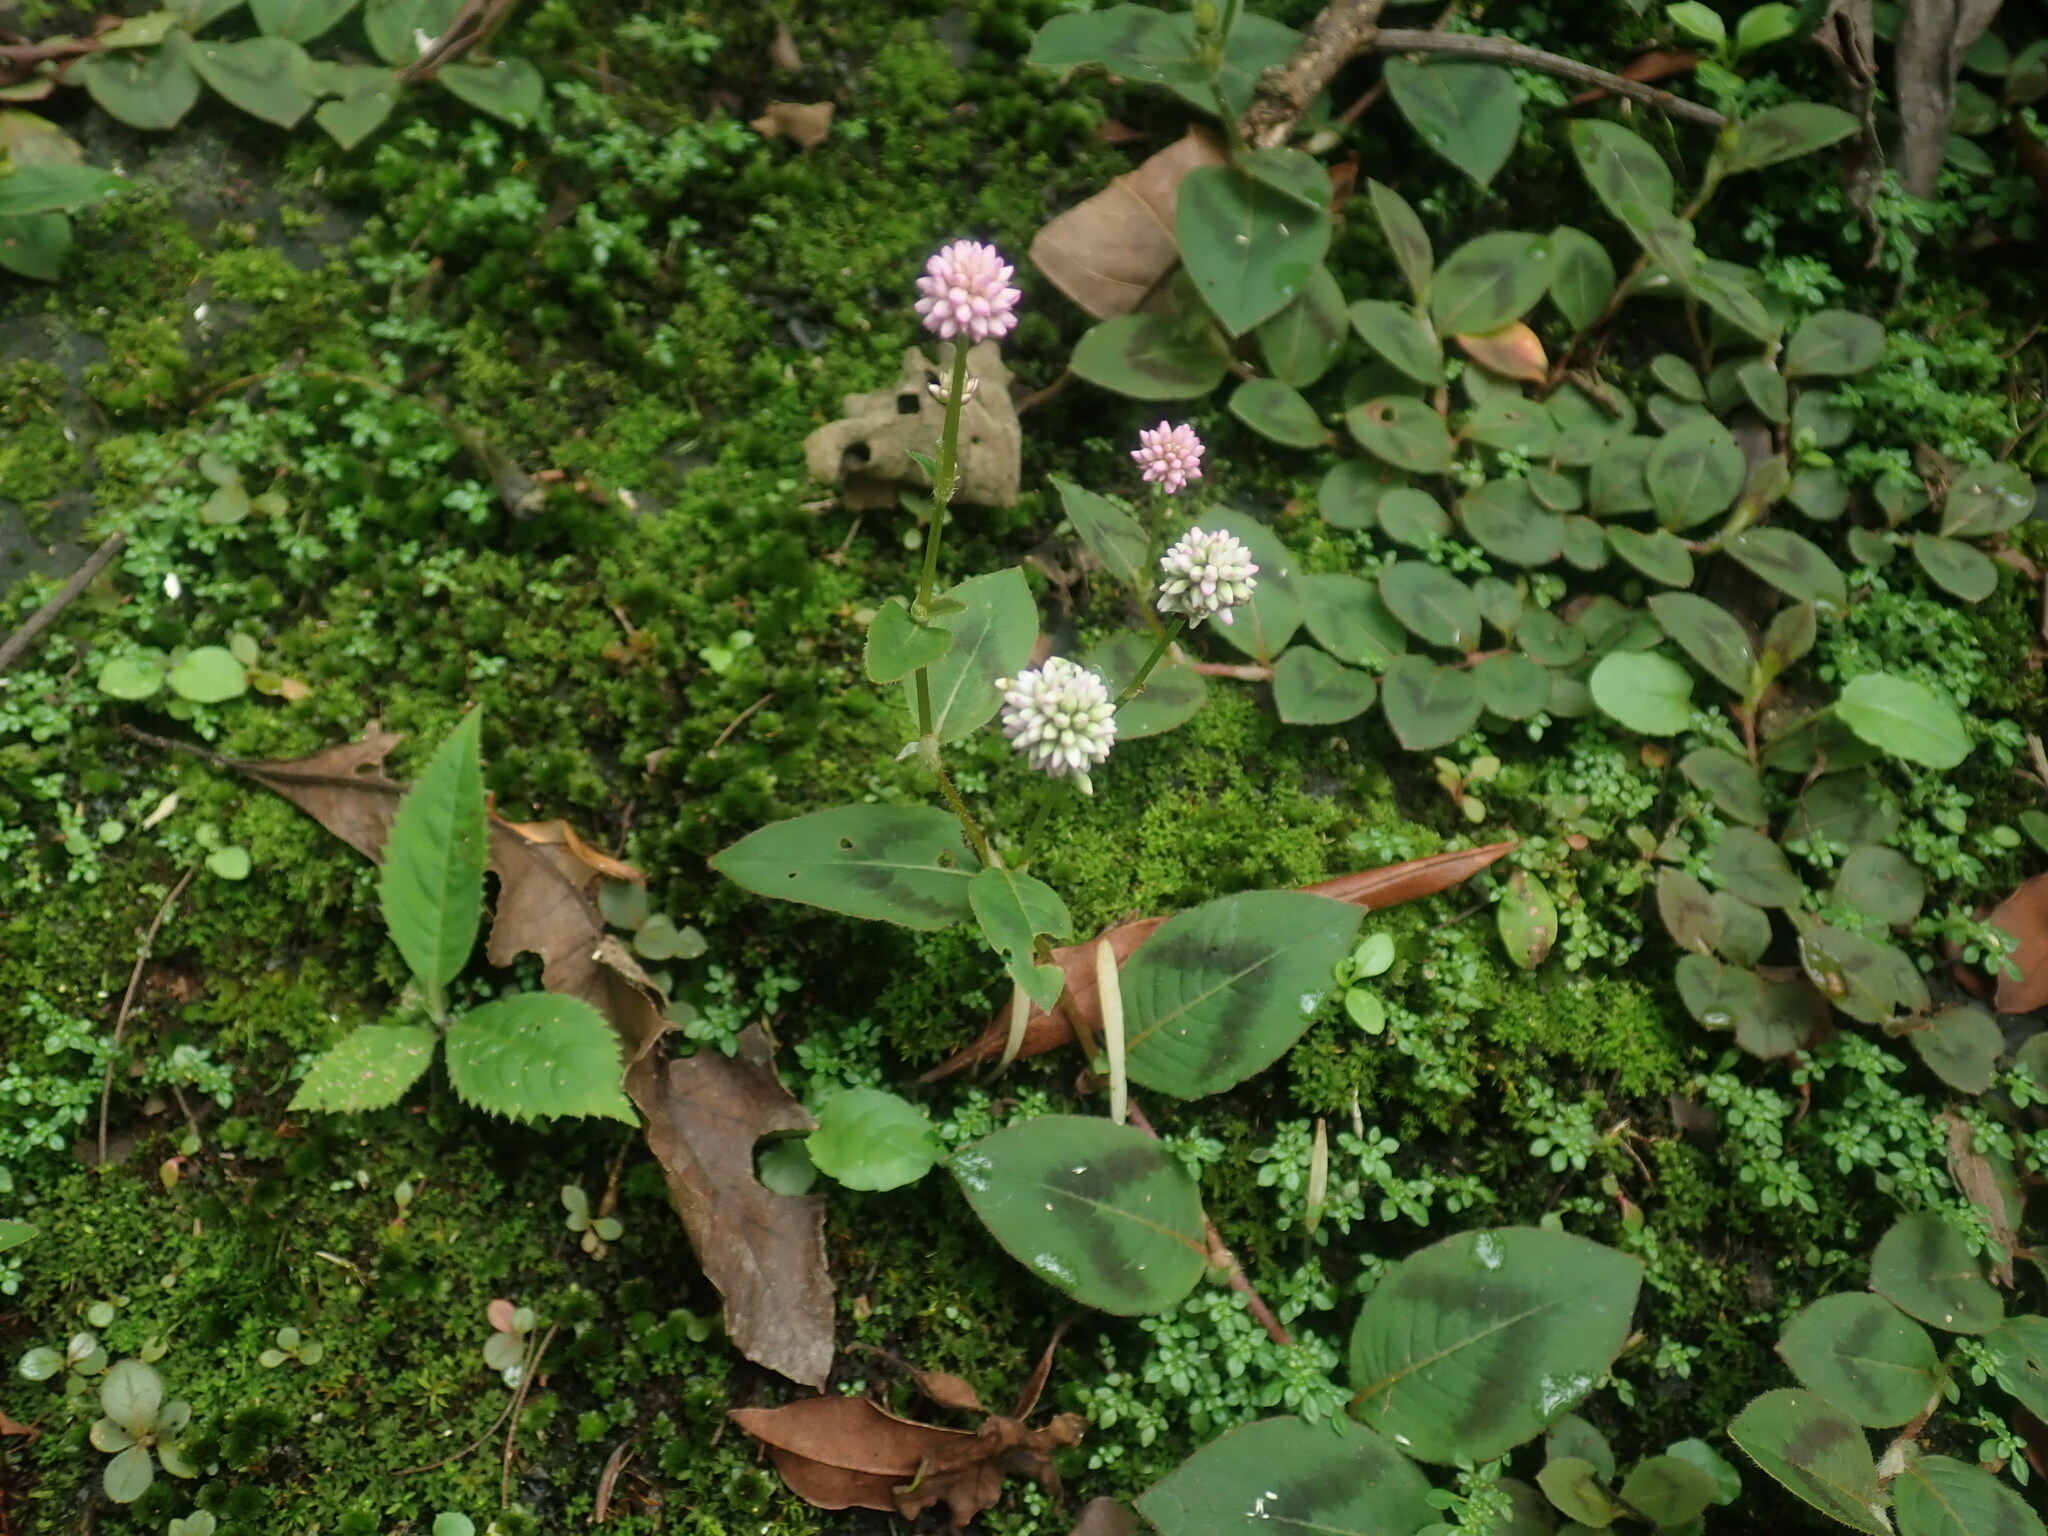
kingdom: Plantae
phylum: Tracheophyta
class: Magnoliopsida
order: Caryophyllales
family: Polygonaceae
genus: Persicaria
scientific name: Persicaria capitata
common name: Pinkhead smartweed
